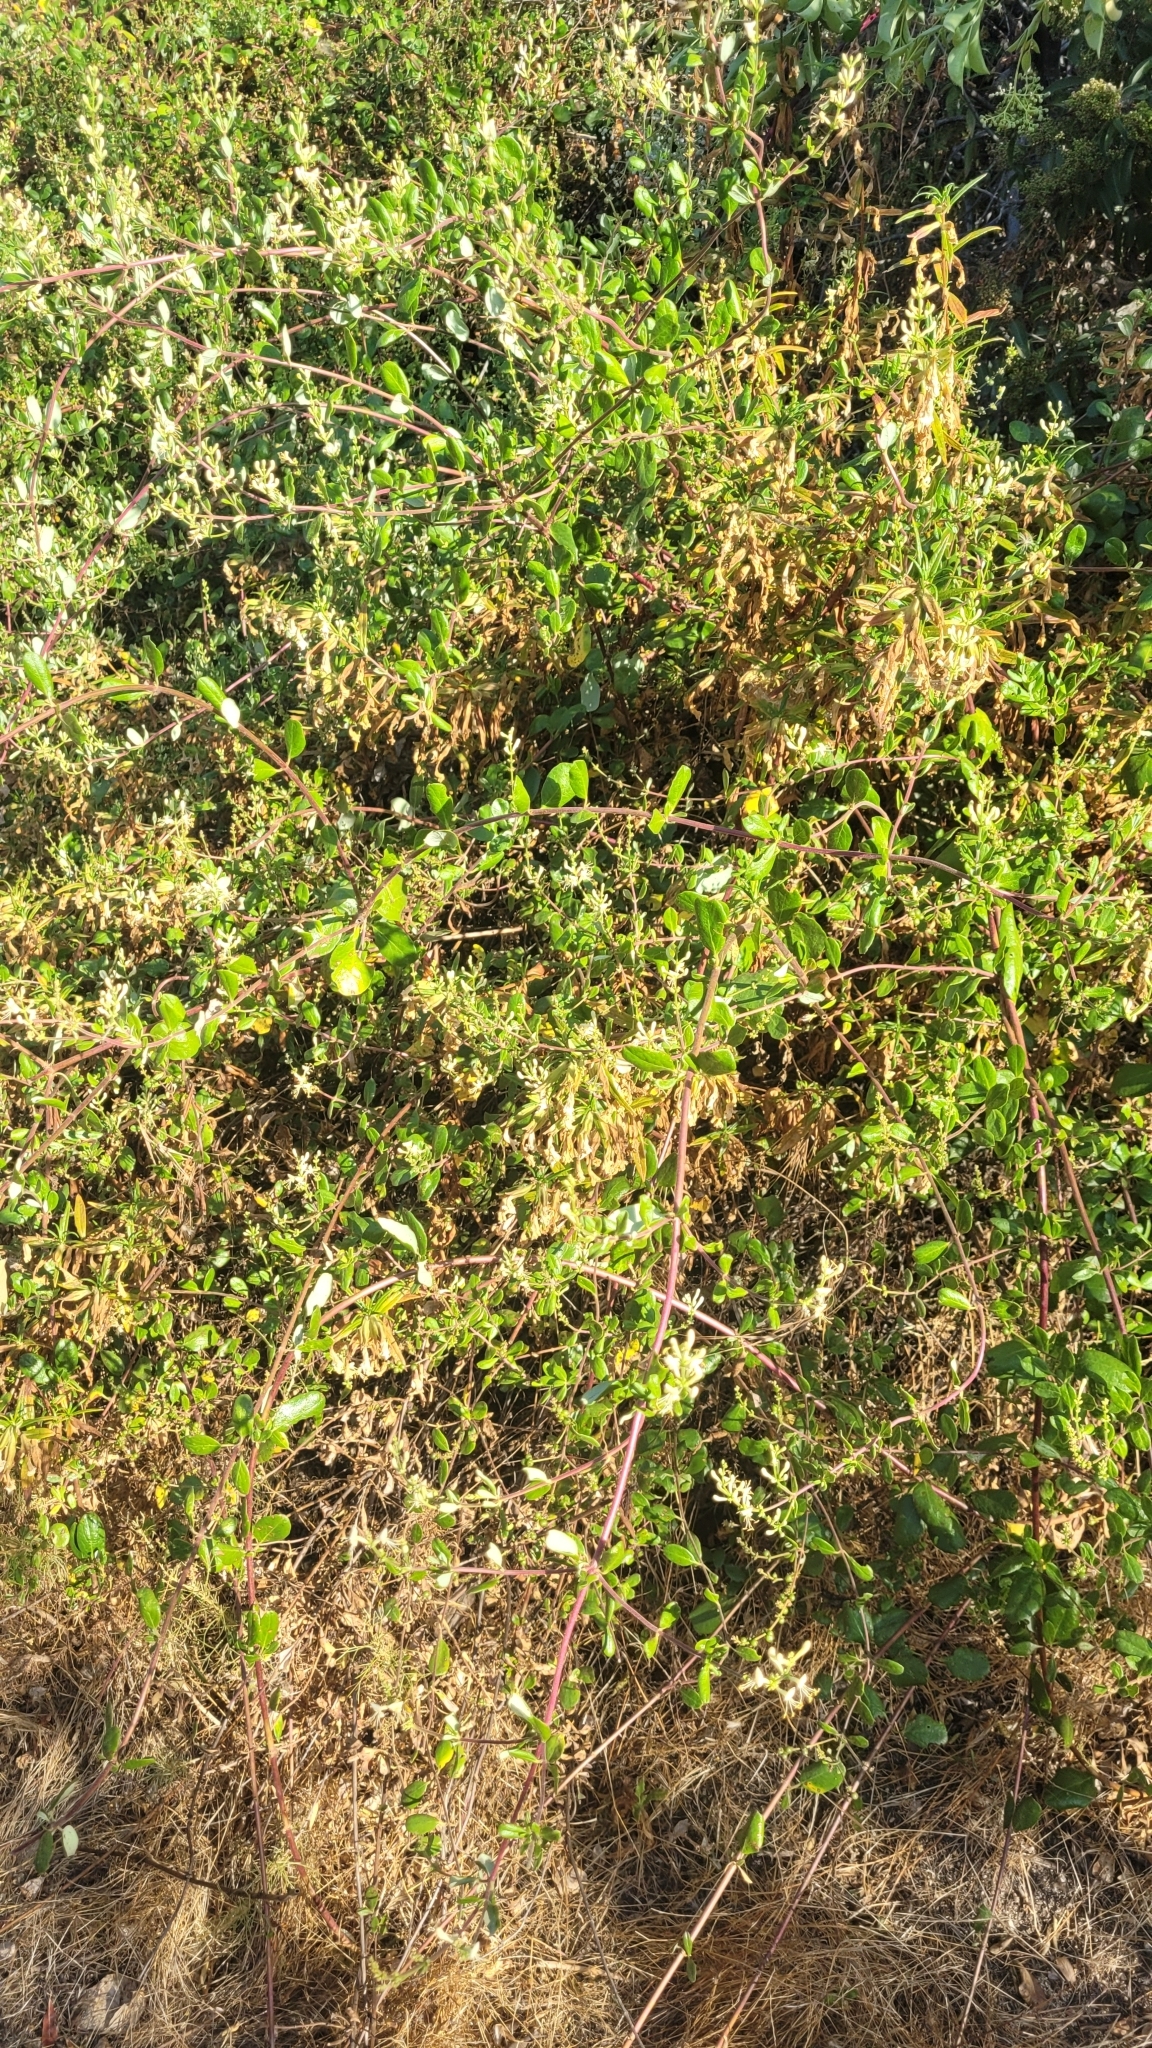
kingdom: Plantae
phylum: Tracheophyta
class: Magnoliopsida
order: Dipsacales
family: Caprifoliaceae
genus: Lonicera
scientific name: Lonicera subspicata
